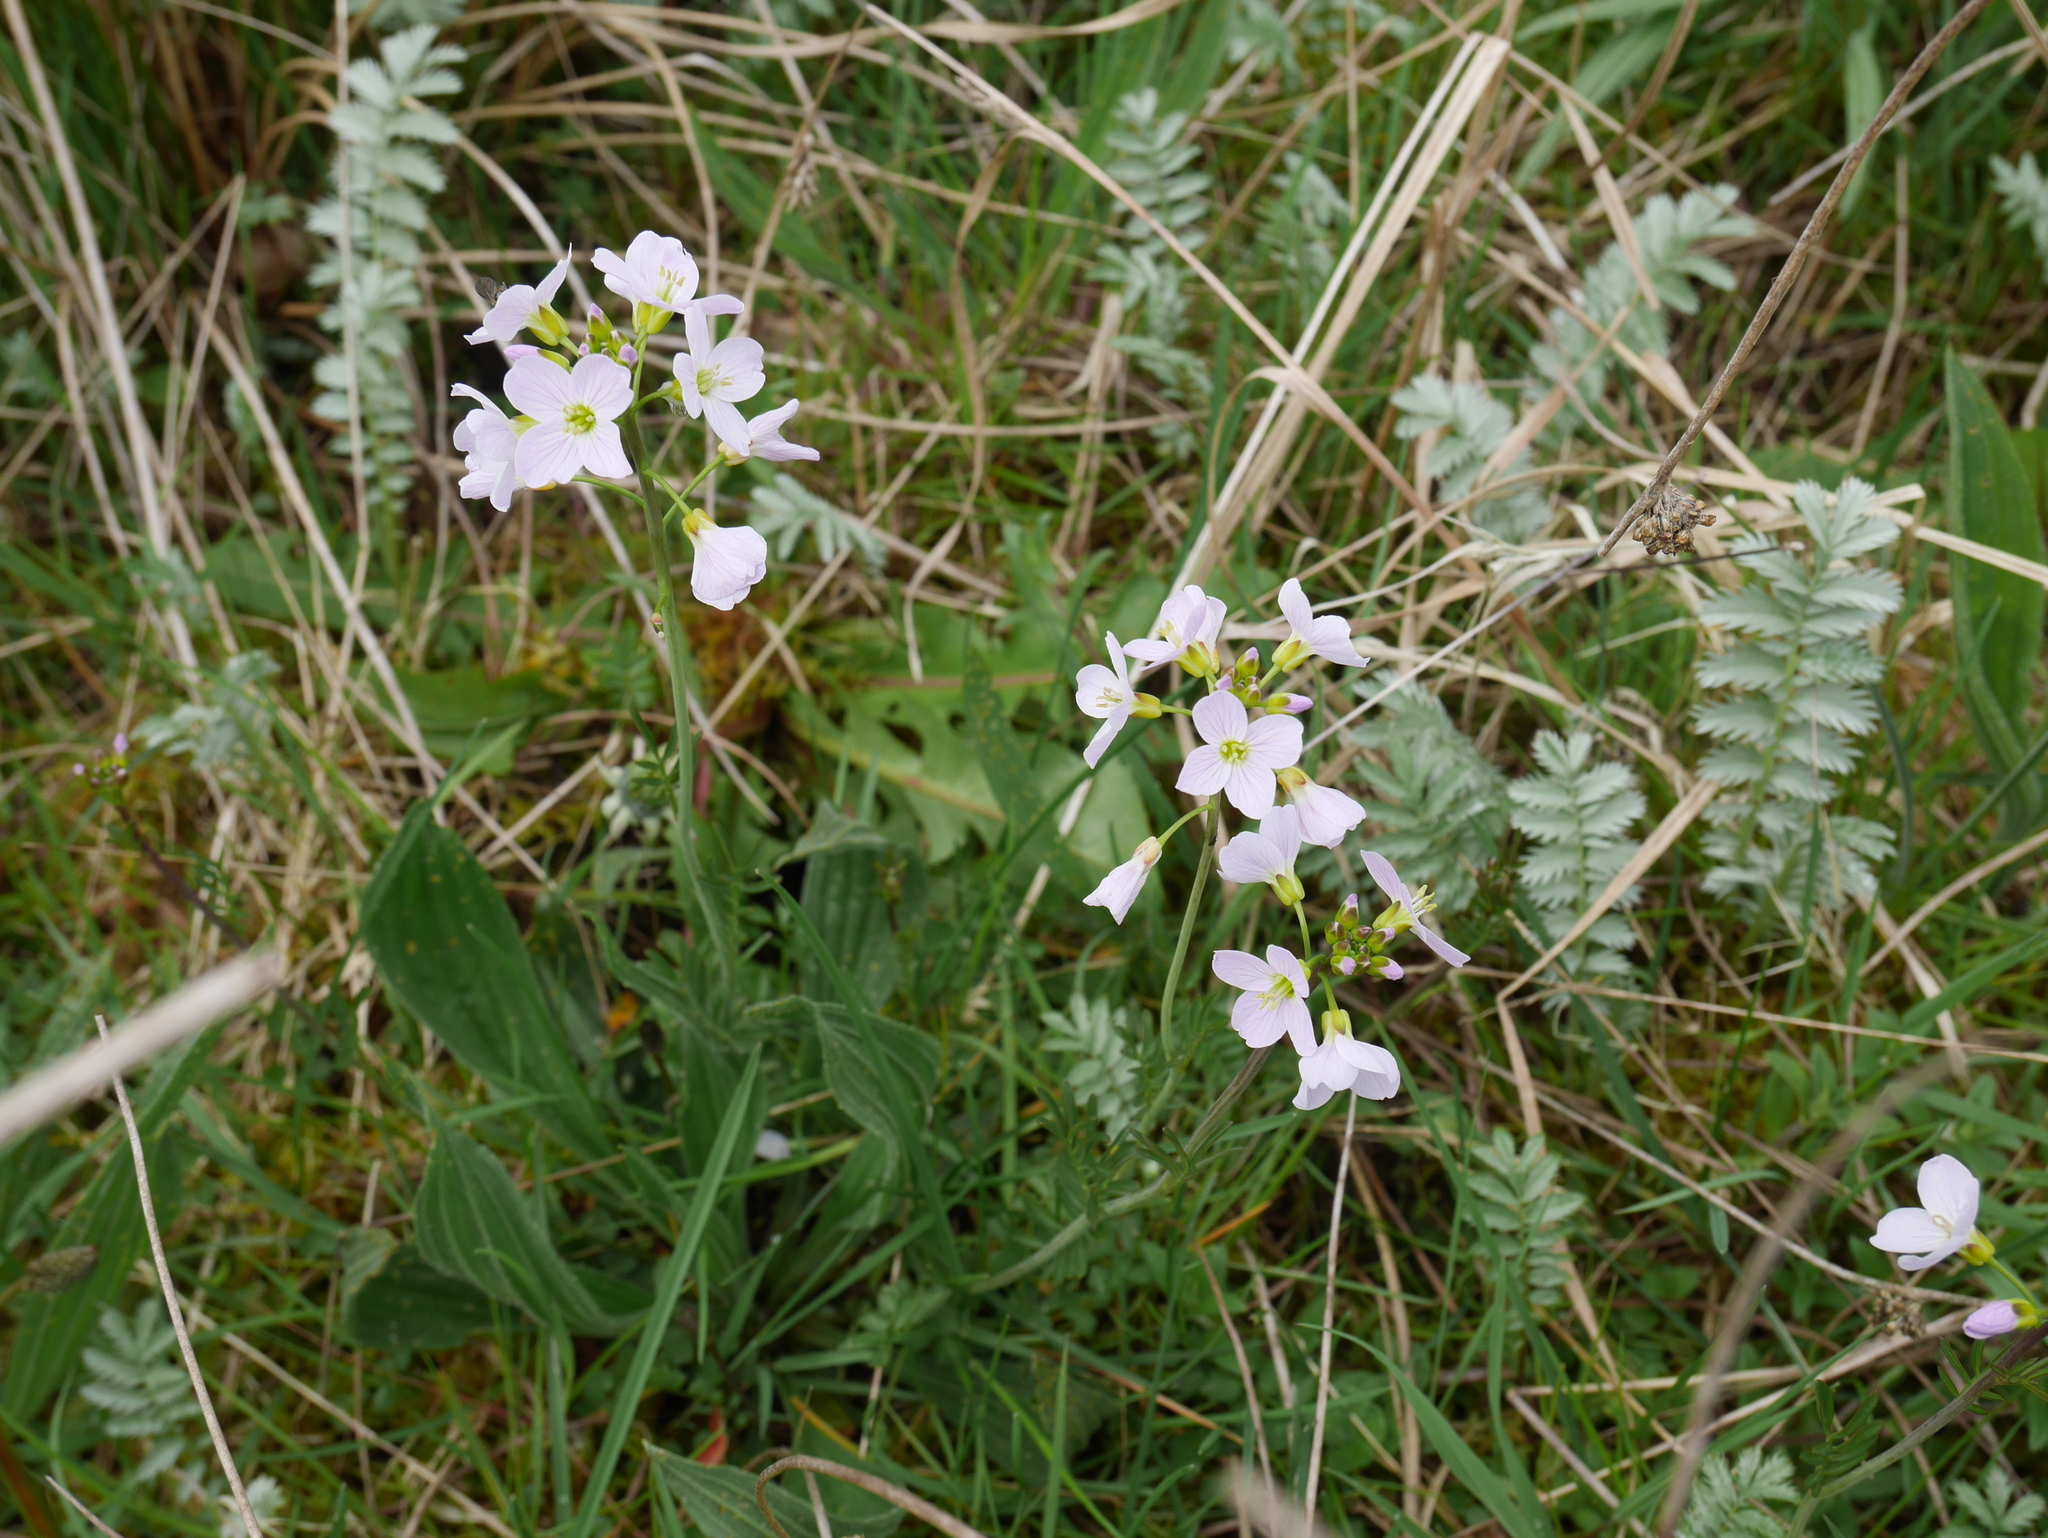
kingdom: Plantae
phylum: Tracheophyta
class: Magnoliopsida
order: Brassicales
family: Brassicaceae
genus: Cardamine
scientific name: Cardamine pratensis
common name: Cuckoo flower
